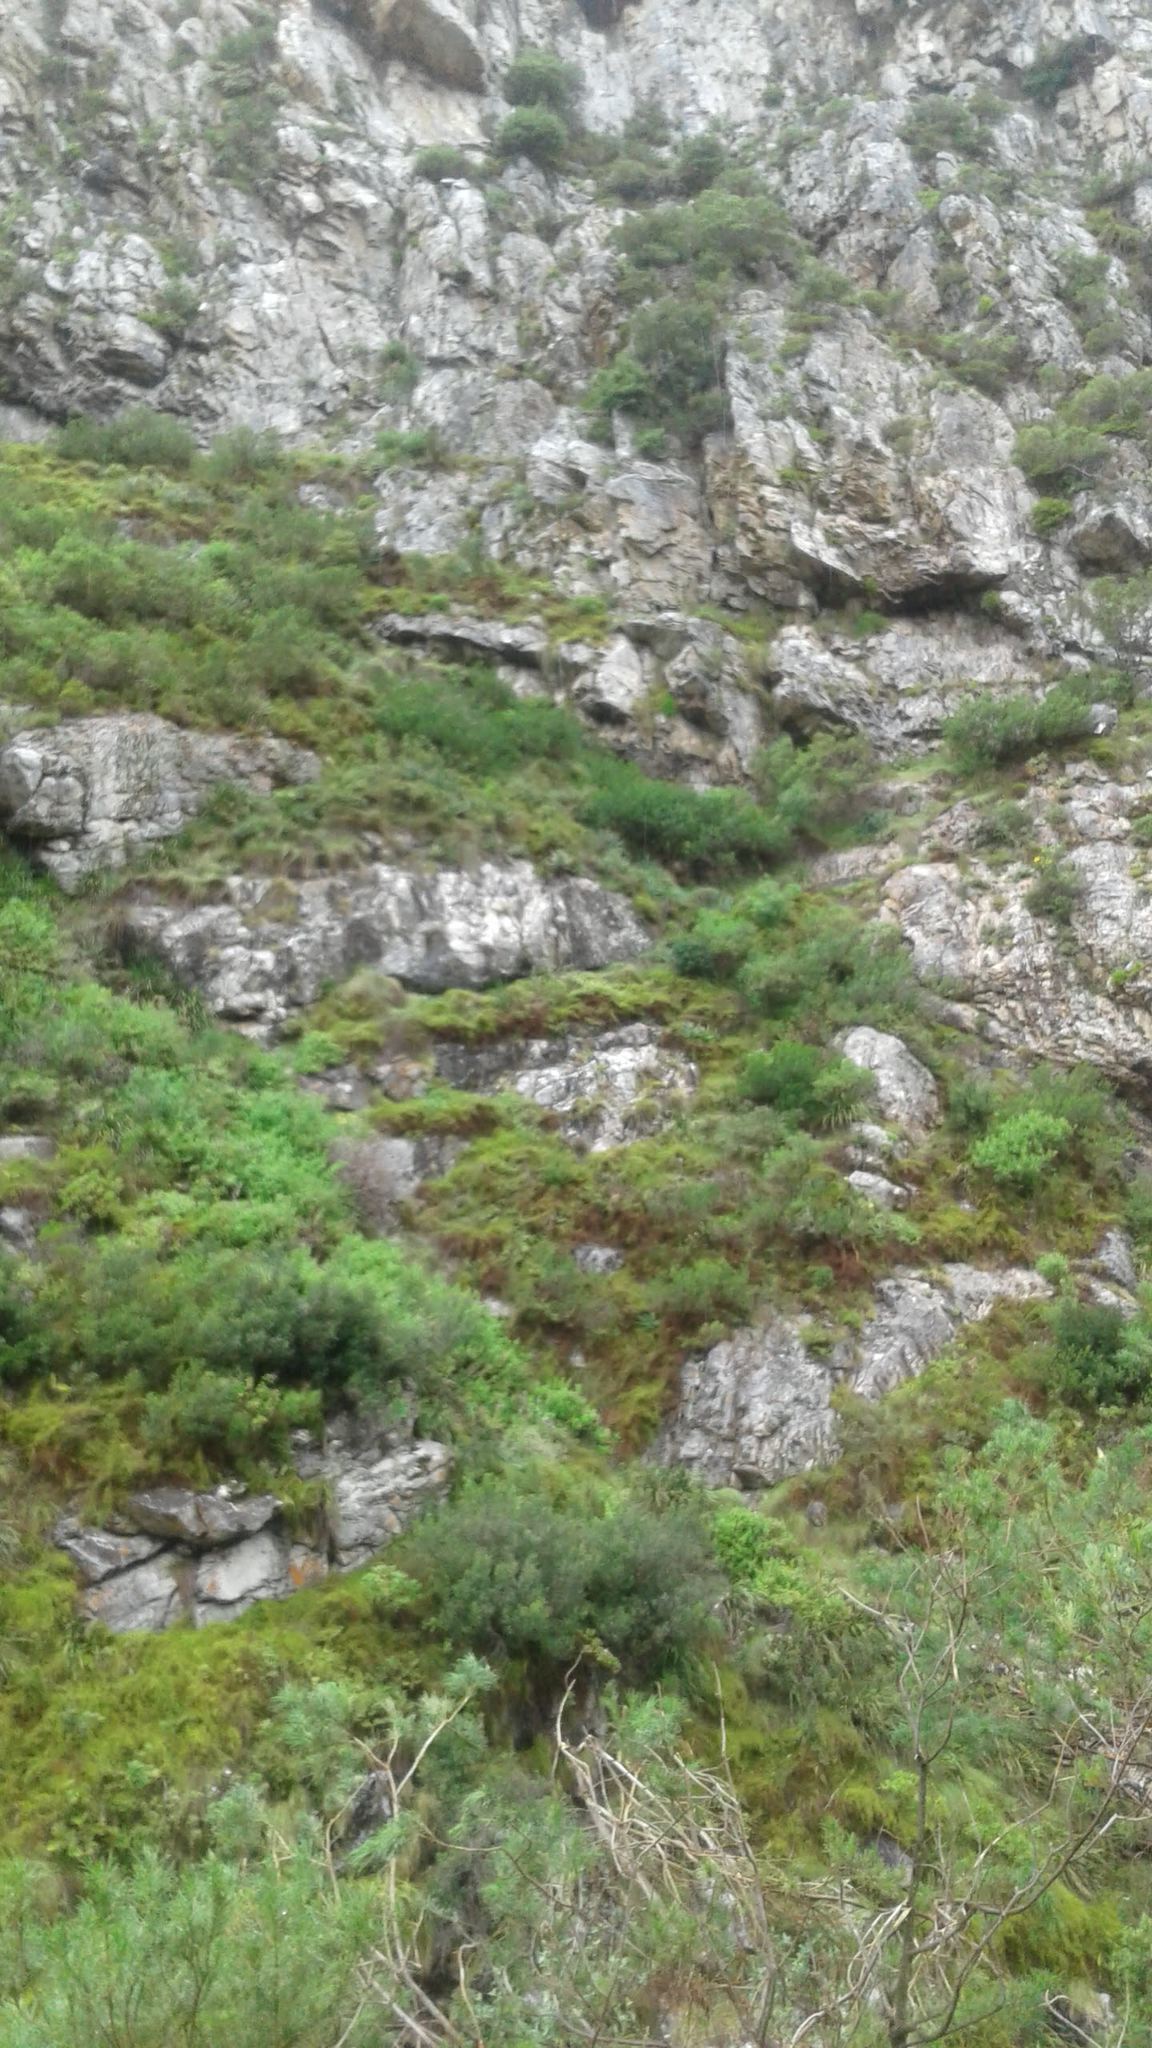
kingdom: Plantae
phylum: Tracheophyta
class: Liliopsida
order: Asparagales
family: Asphodelaceae
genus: Aloe
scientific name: Aloe succotrina
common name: Bombay aloe
